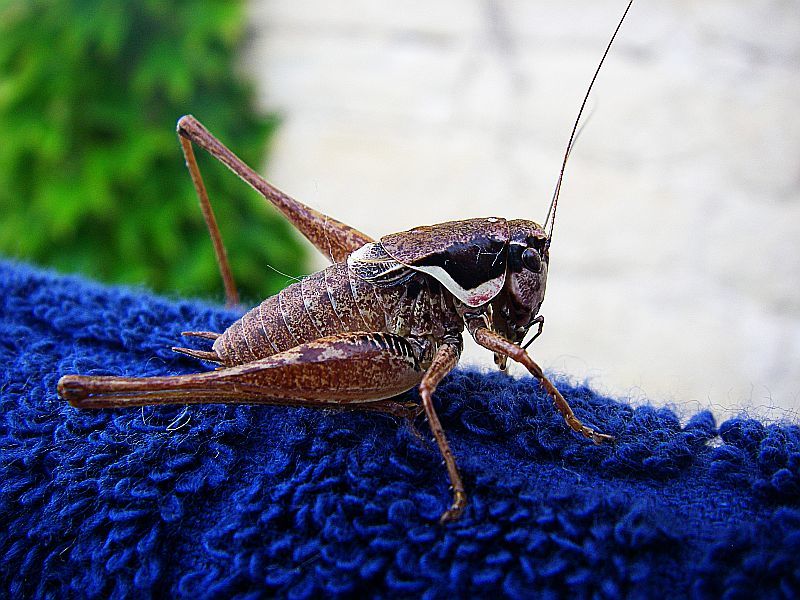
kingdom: Animalia
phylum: Arthropoda
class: Insecta
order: Orthoptera
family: Tettigoniidae
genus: Pholidoptera
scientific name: Pholidoptera femorata
